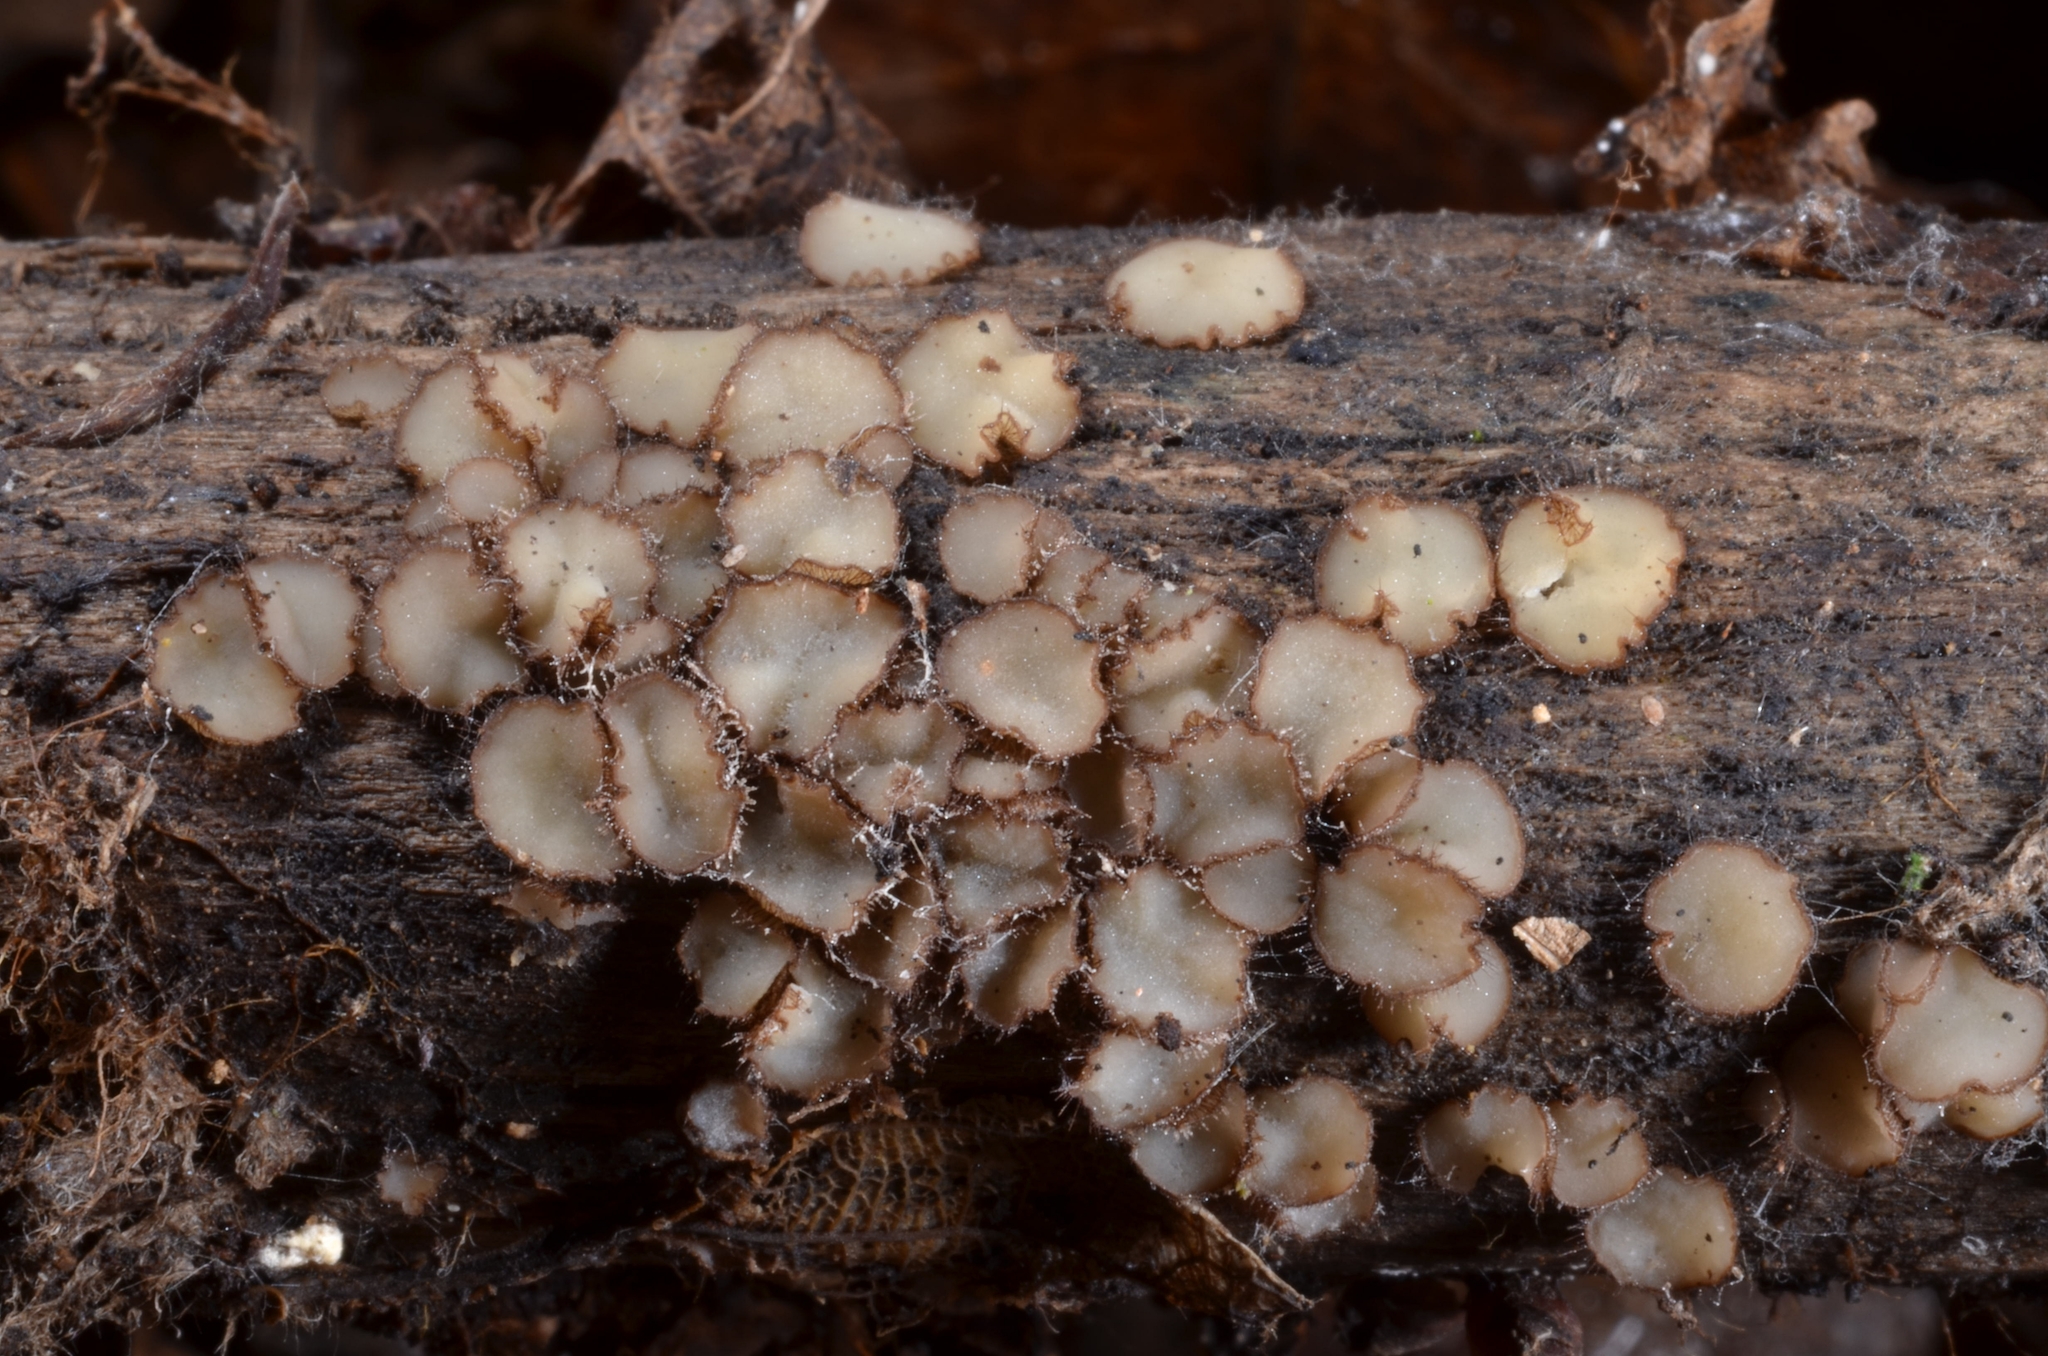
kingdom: Fungi
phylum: Ascomycota
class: Pezizomycetes
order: Pezizales
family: Pyronemataceae
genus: Trichophaeopsis
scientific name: Trichophaeopsis bicuspis
